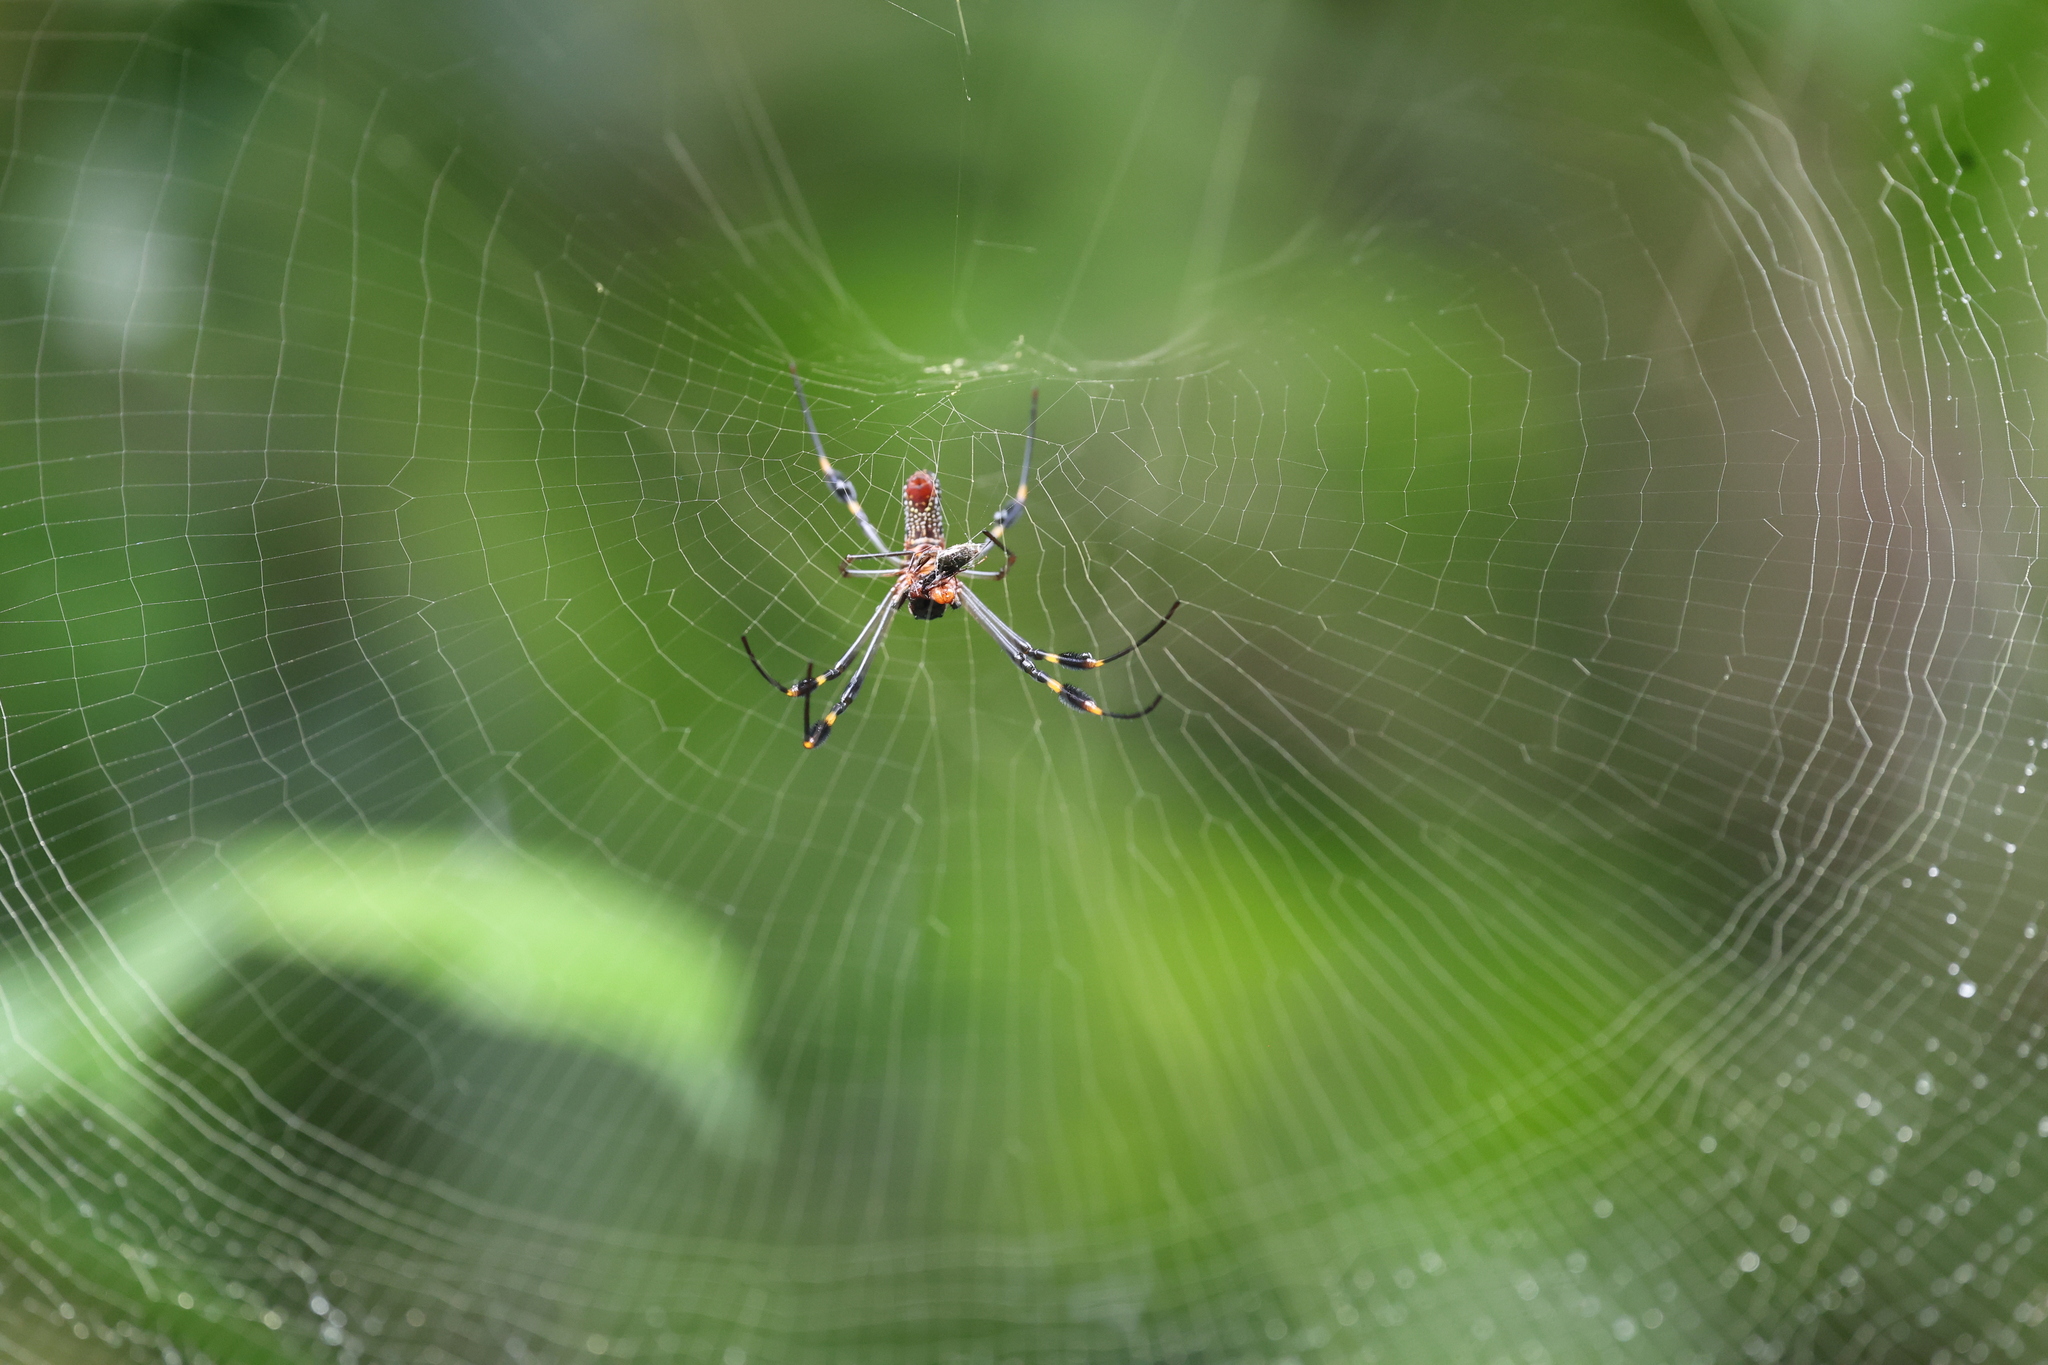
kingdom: Animalia
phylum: Arthropoda
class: Arachnida
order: Araneae
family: Araneidae
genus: Trichonephila
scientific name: Trichonephila clavipes
